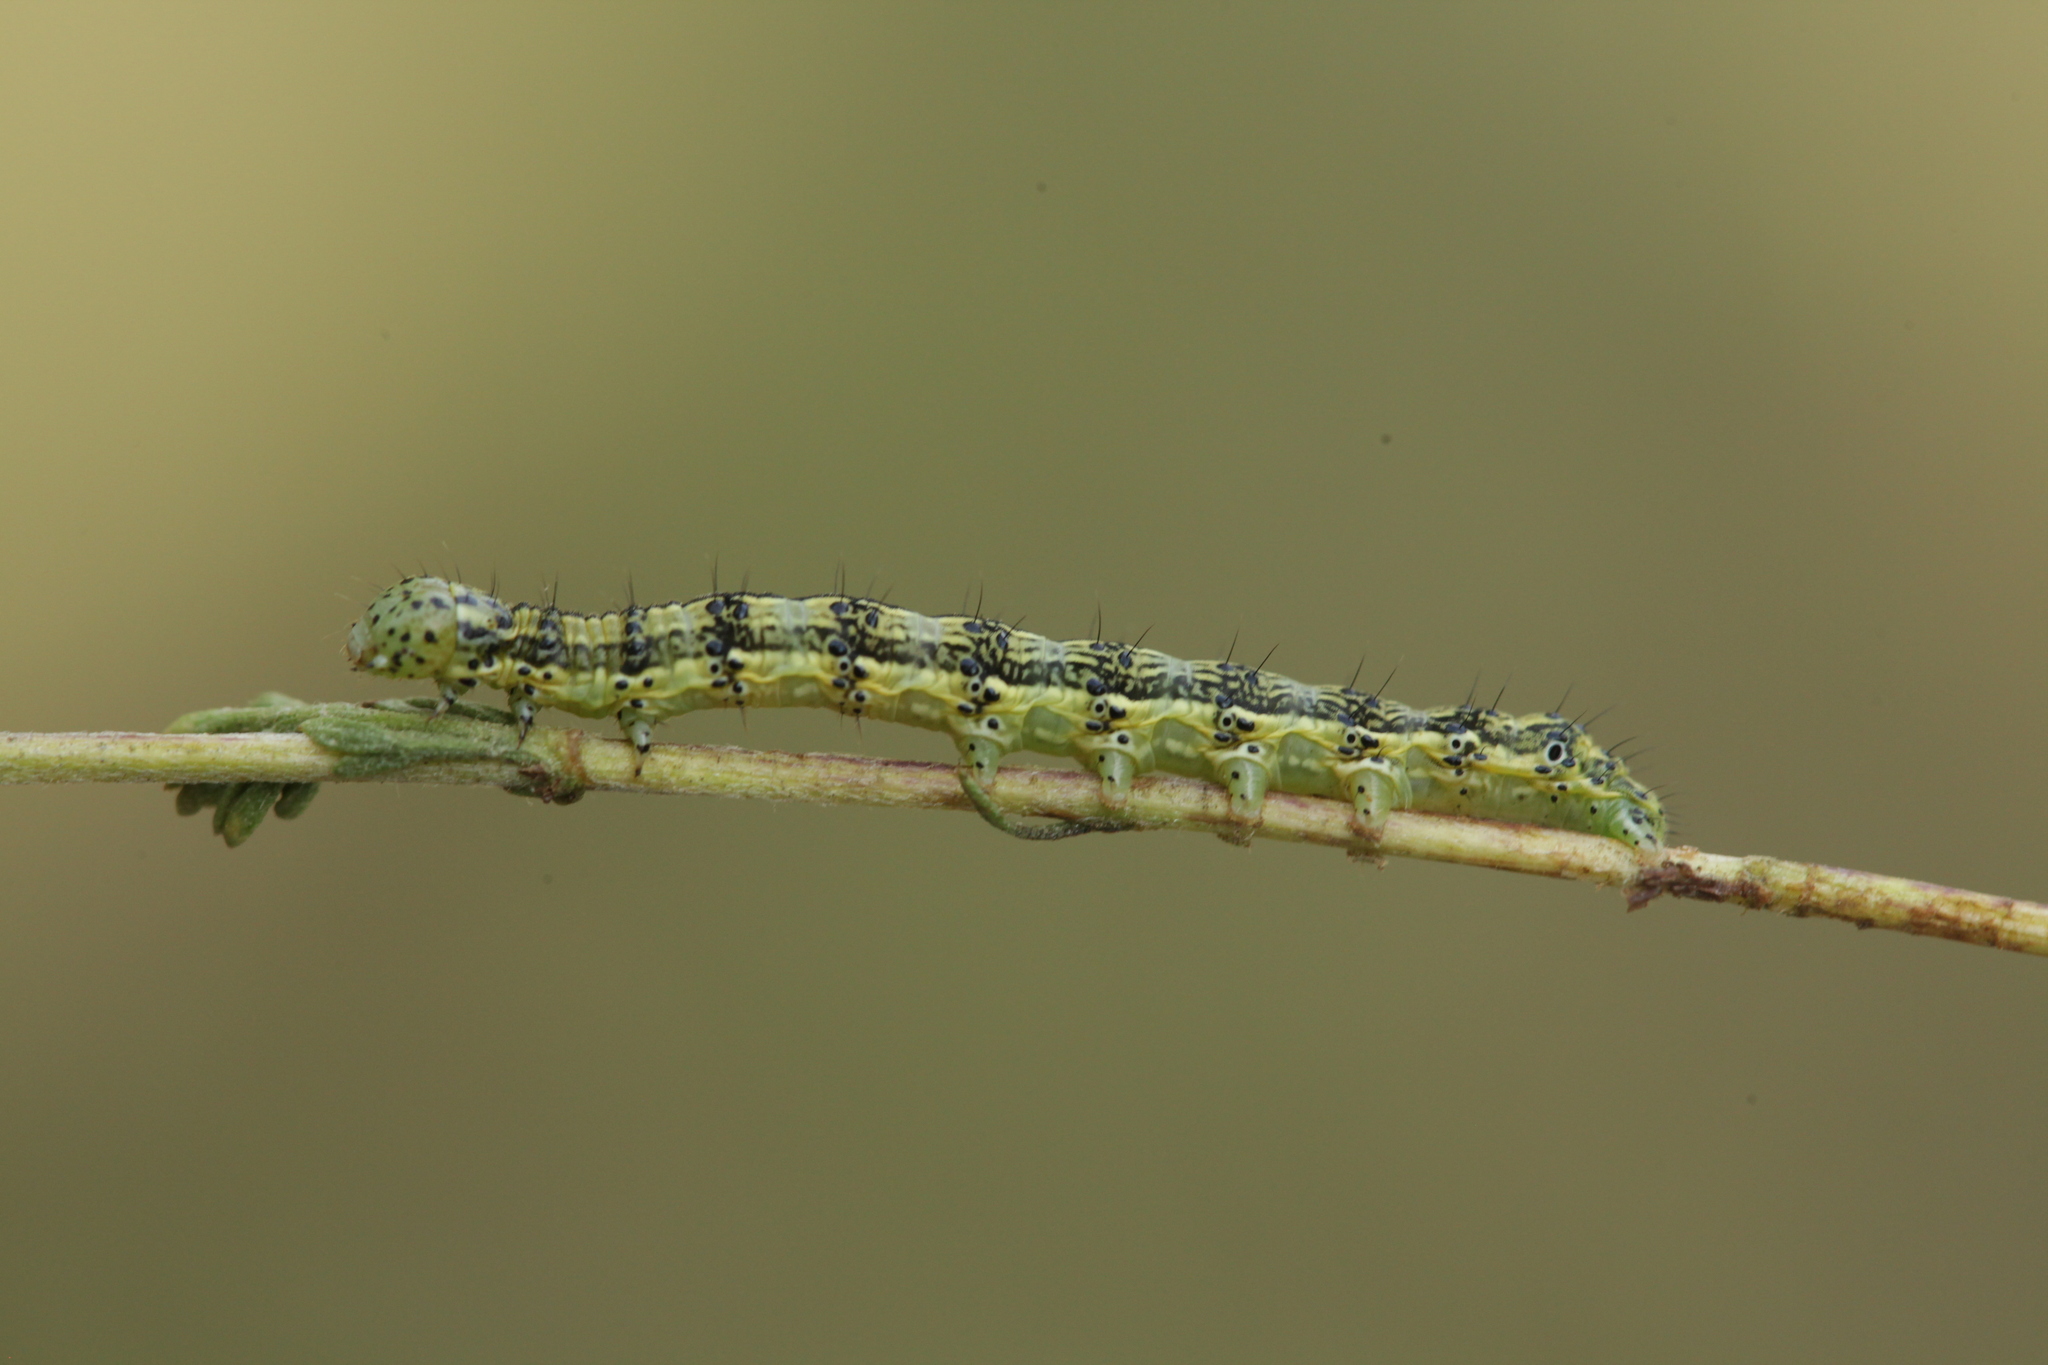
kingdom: Animalia
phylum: Arthropoda
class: Insecta
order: Lepidoptera
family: Noctuidae
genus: Protoschinia
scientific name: Protoschinia scutosa
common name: Spotted clover
